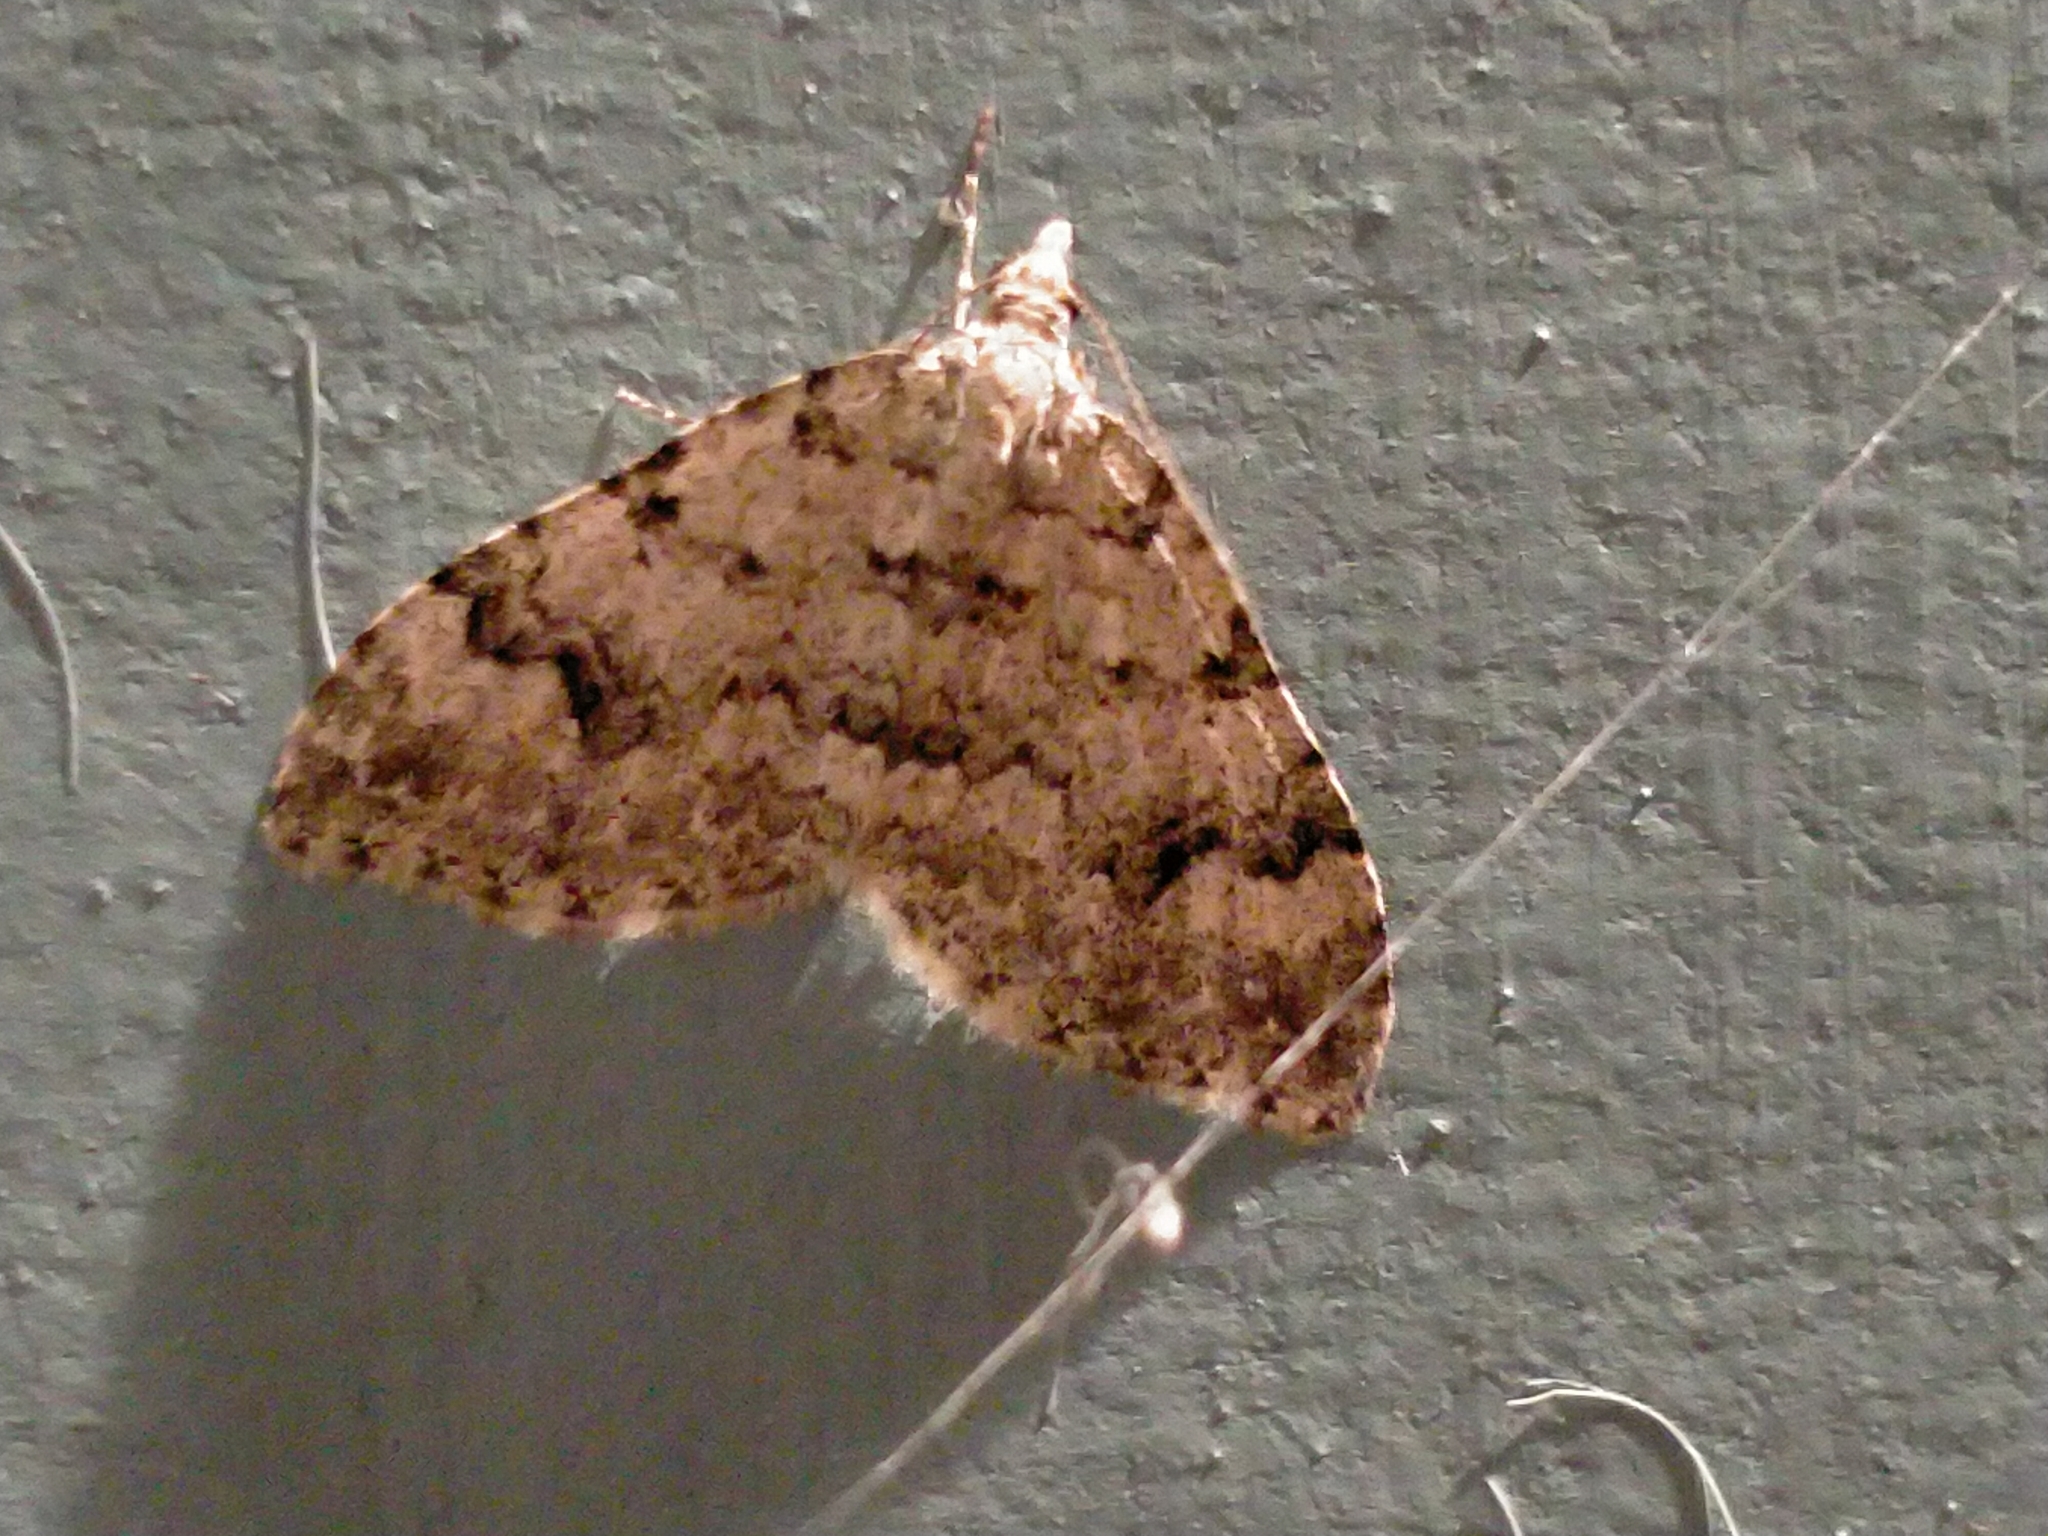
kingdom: Animalia
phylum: Arthropoda
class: Insecta
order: Lepidoptera
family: Geometridae
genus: Helastia
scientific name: Helastia cinerearia
